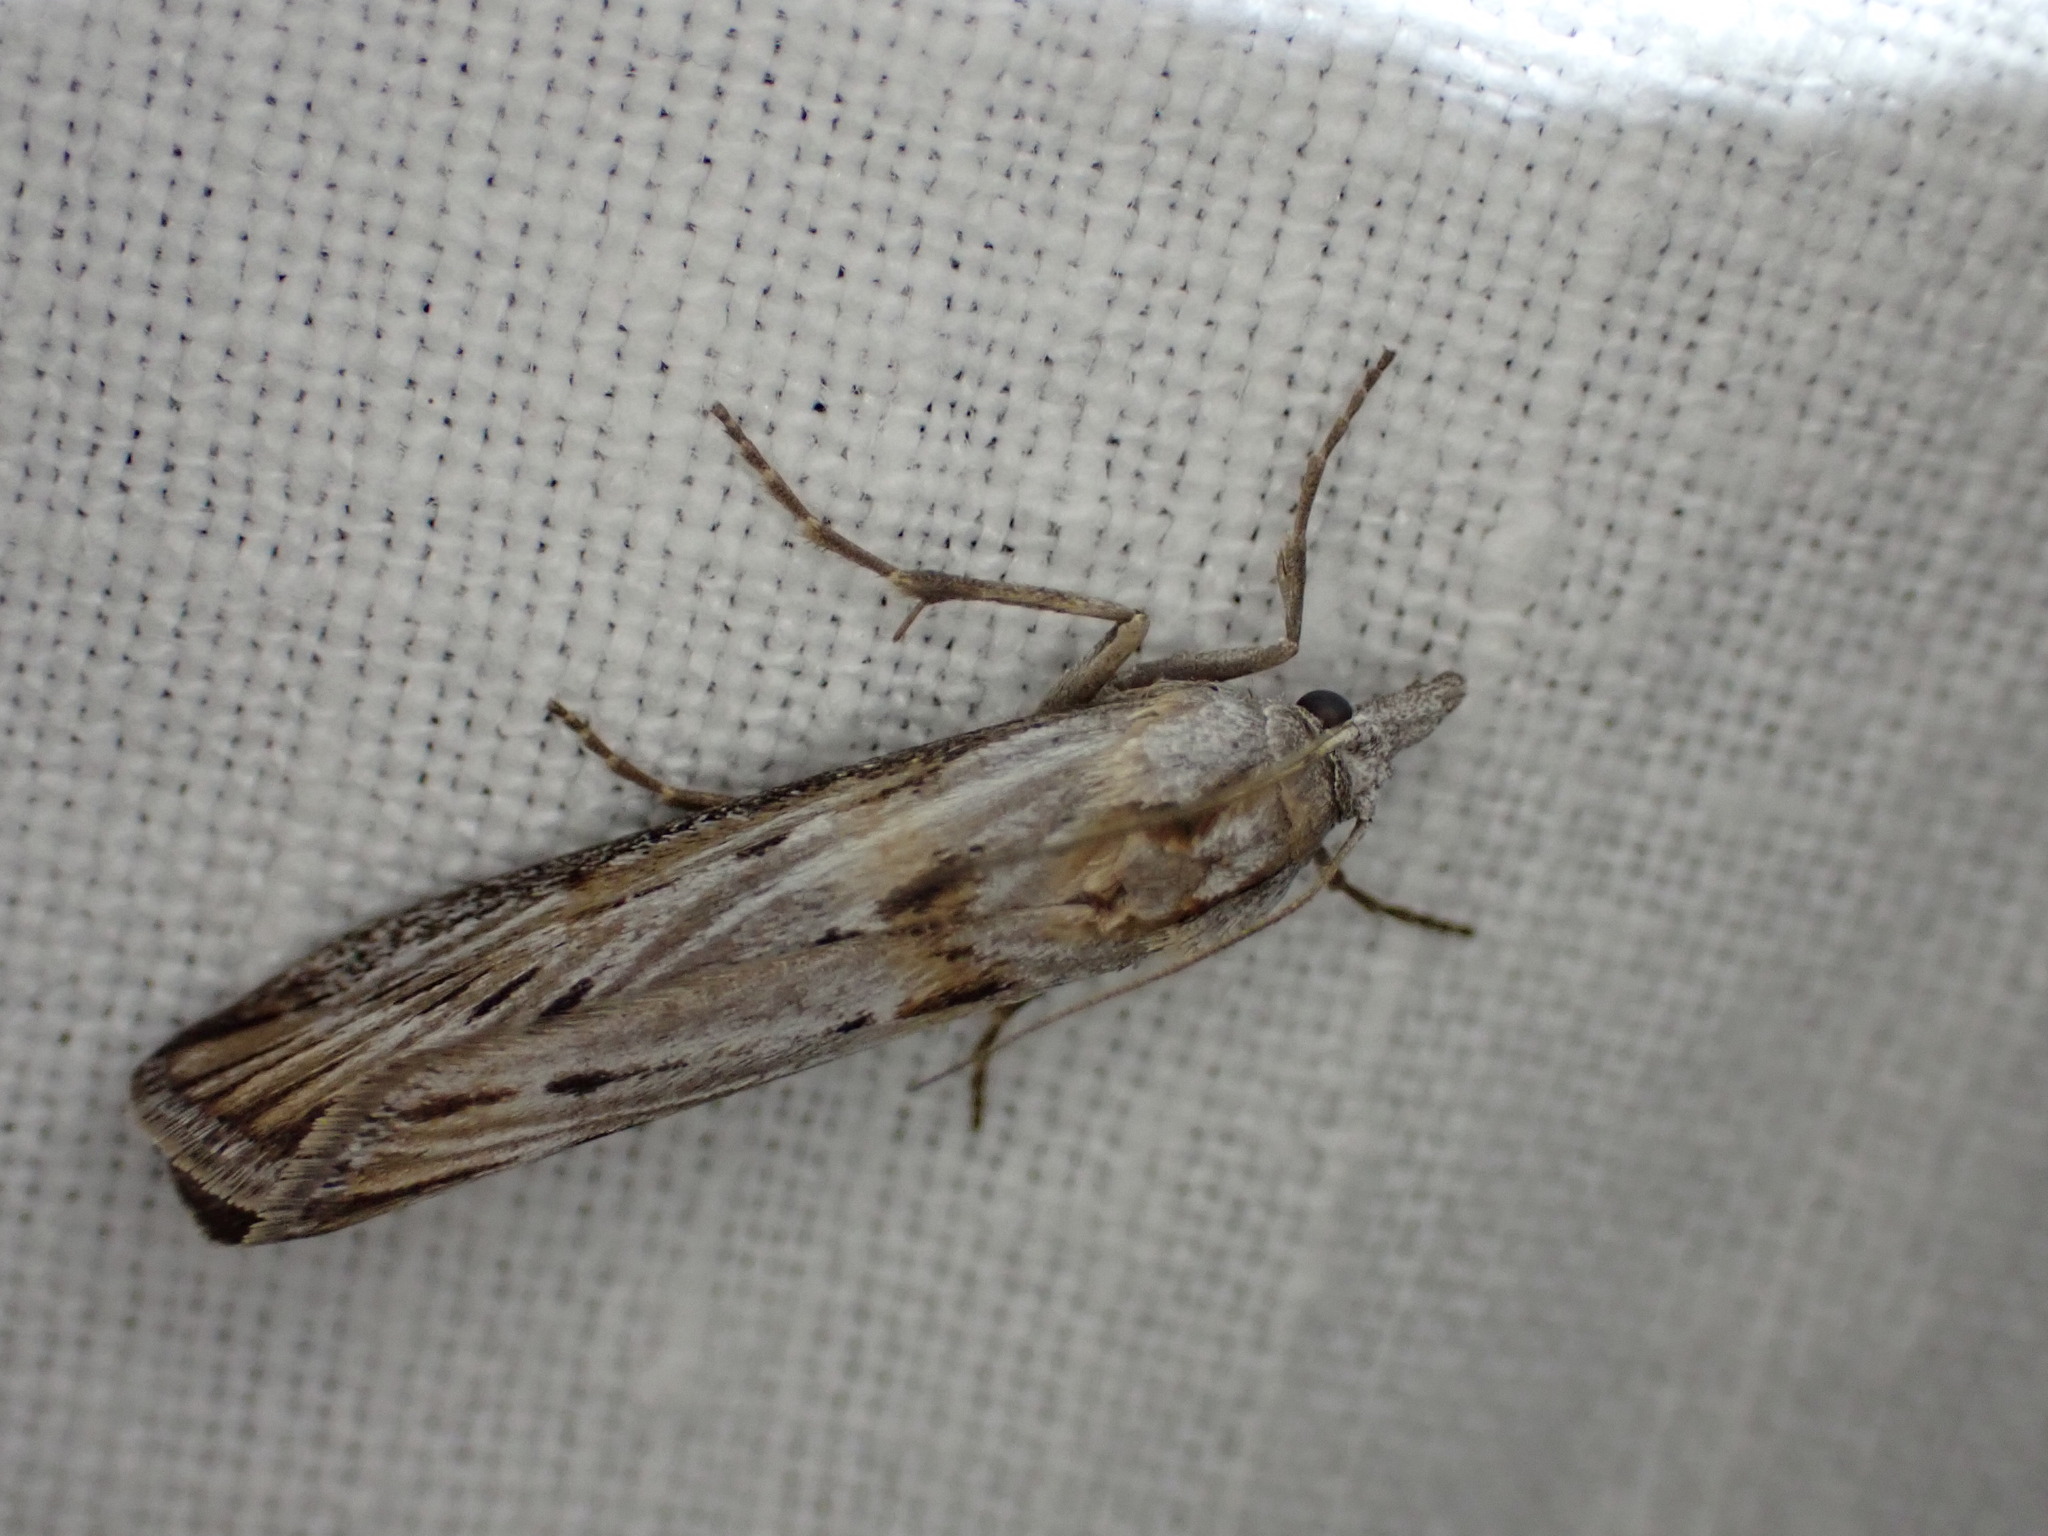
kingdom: Animalia
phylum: Arthropoda
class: Insecta
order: Lepidoptera
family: Pyralidae
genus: Megasis
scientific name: Megasis prodomella
